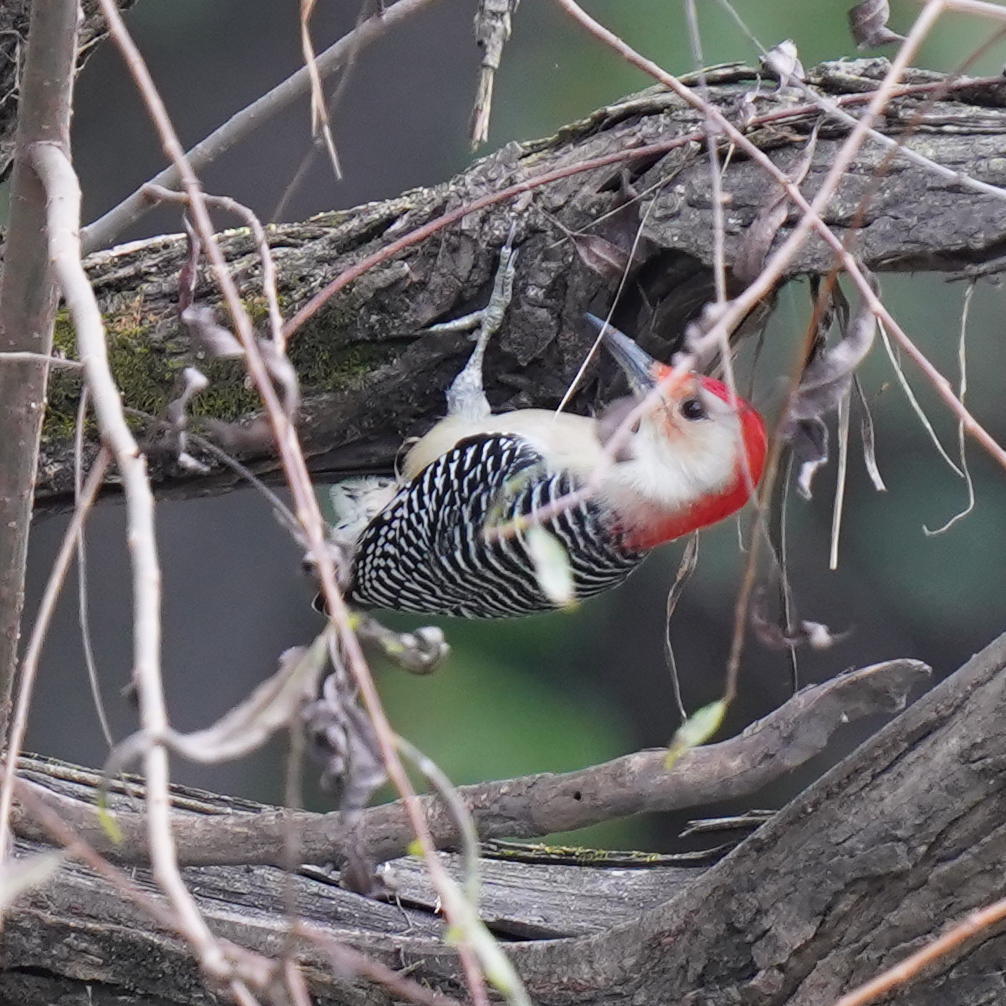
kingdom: Animalia
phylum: Chordata
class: Aves
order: Piciformes
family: Picidae
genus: Melanerpes
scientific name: Melanerpes carolinus
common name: Red-bellied woodpecker
